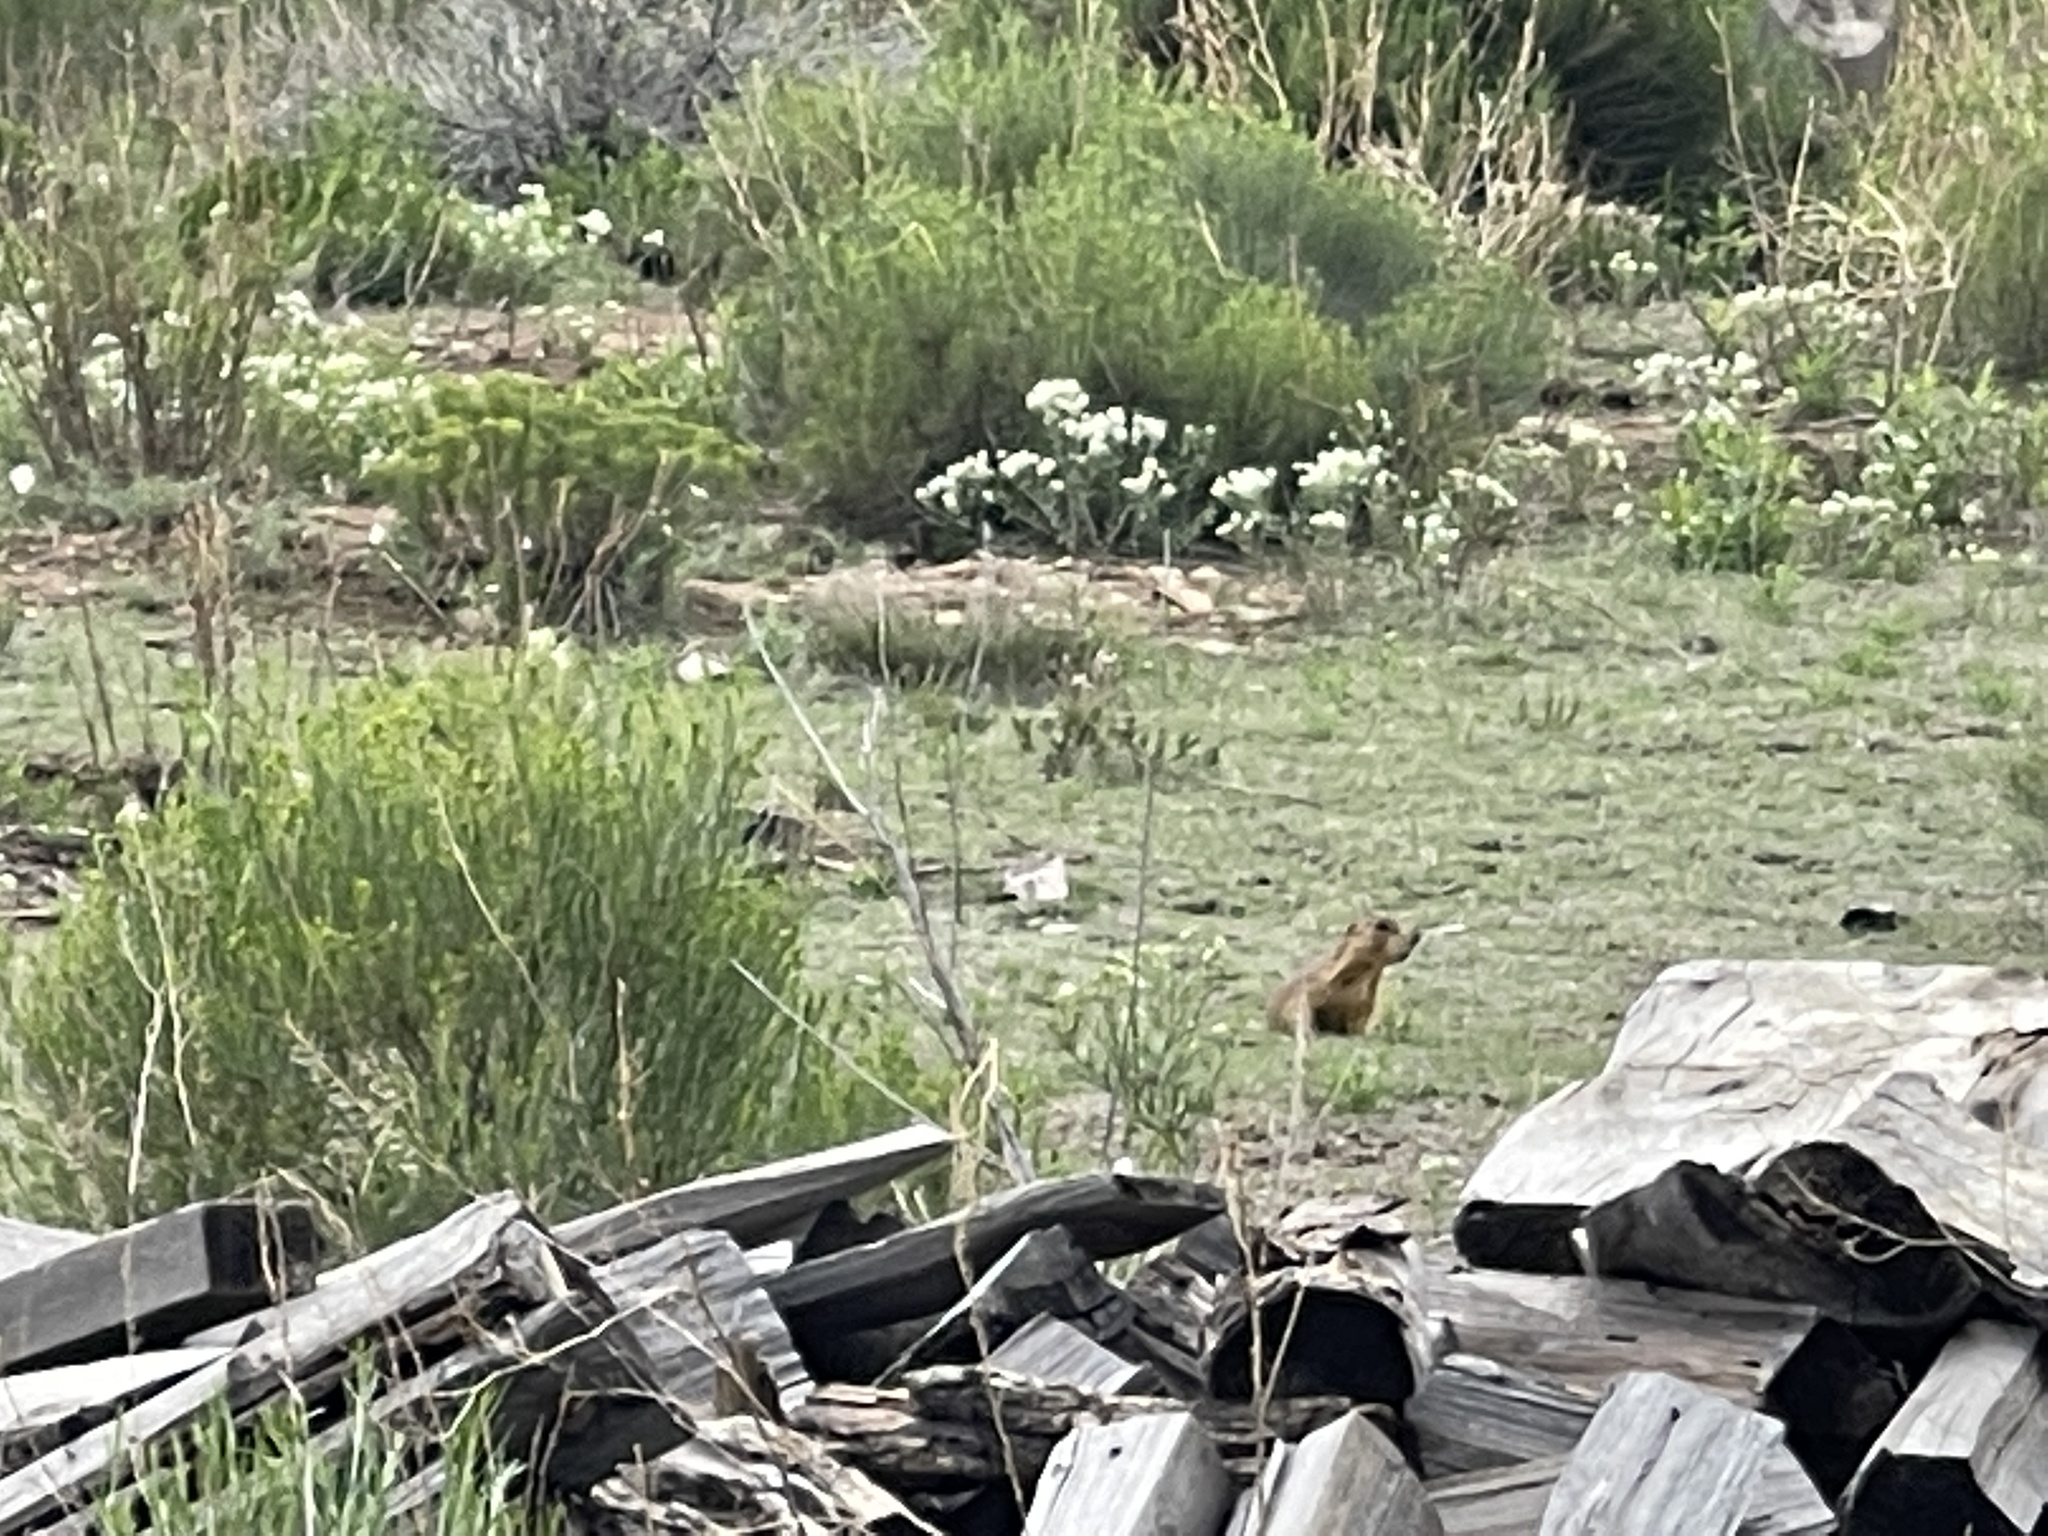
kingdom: Animalia
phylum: Chordata
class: Mammalia
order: Rodentia
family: Sciuridae
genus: Cynomys
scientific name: Cynomys gunnisoni
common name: Gunnison's prairie dog
